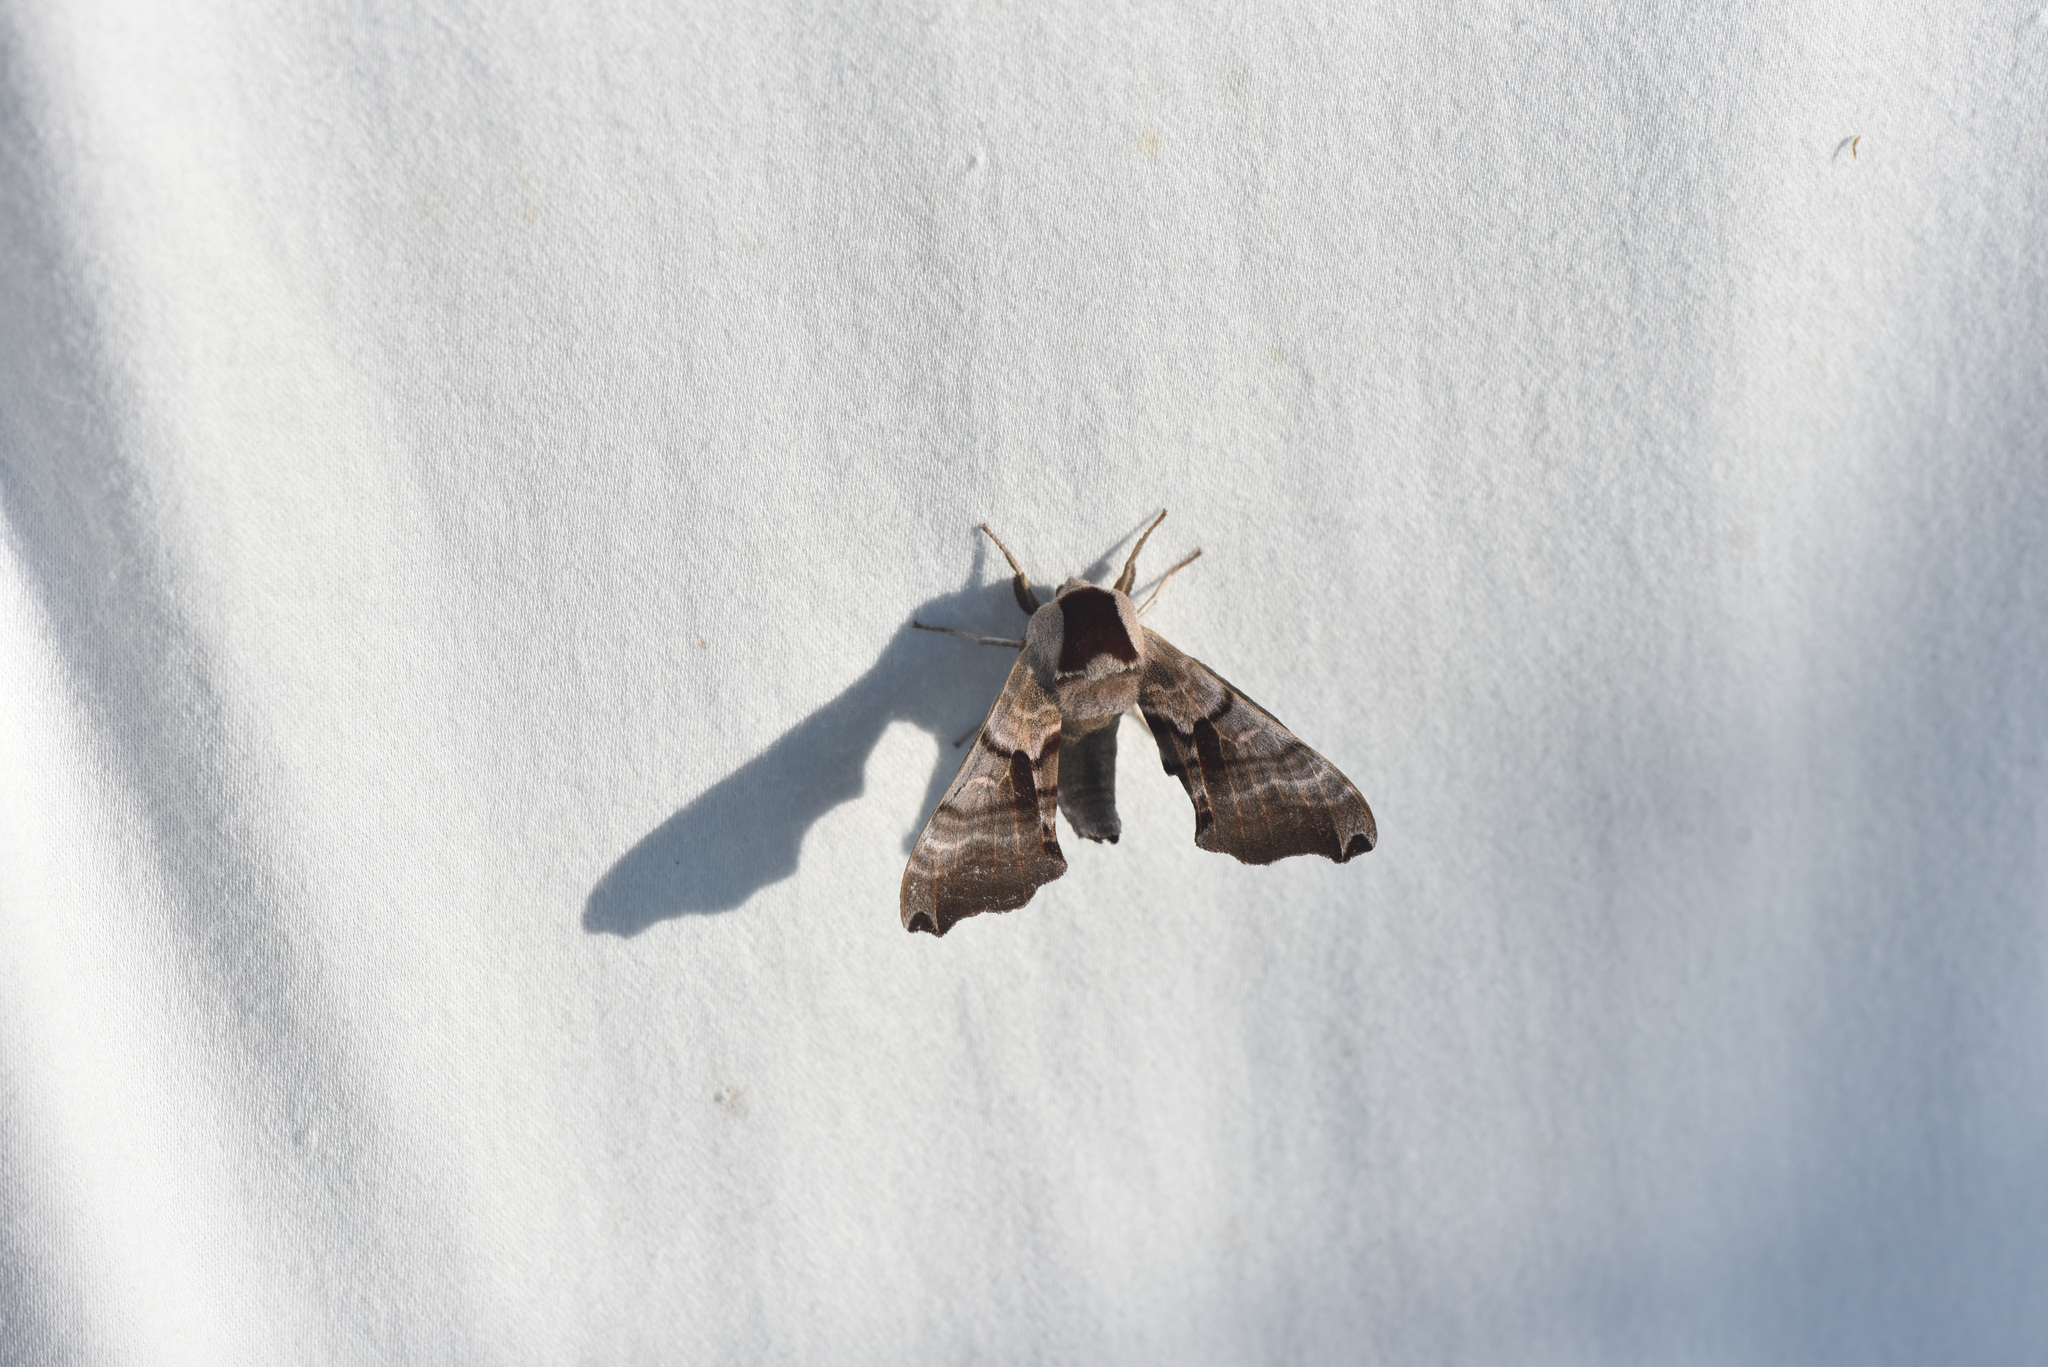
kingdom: Animalia
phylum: Arthropoda
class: Insecta
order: Lepidoptera
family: Sphingidae
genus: Smerinthus
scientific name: Smerinthus jamaicensis
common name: Twin spotted sphinx
